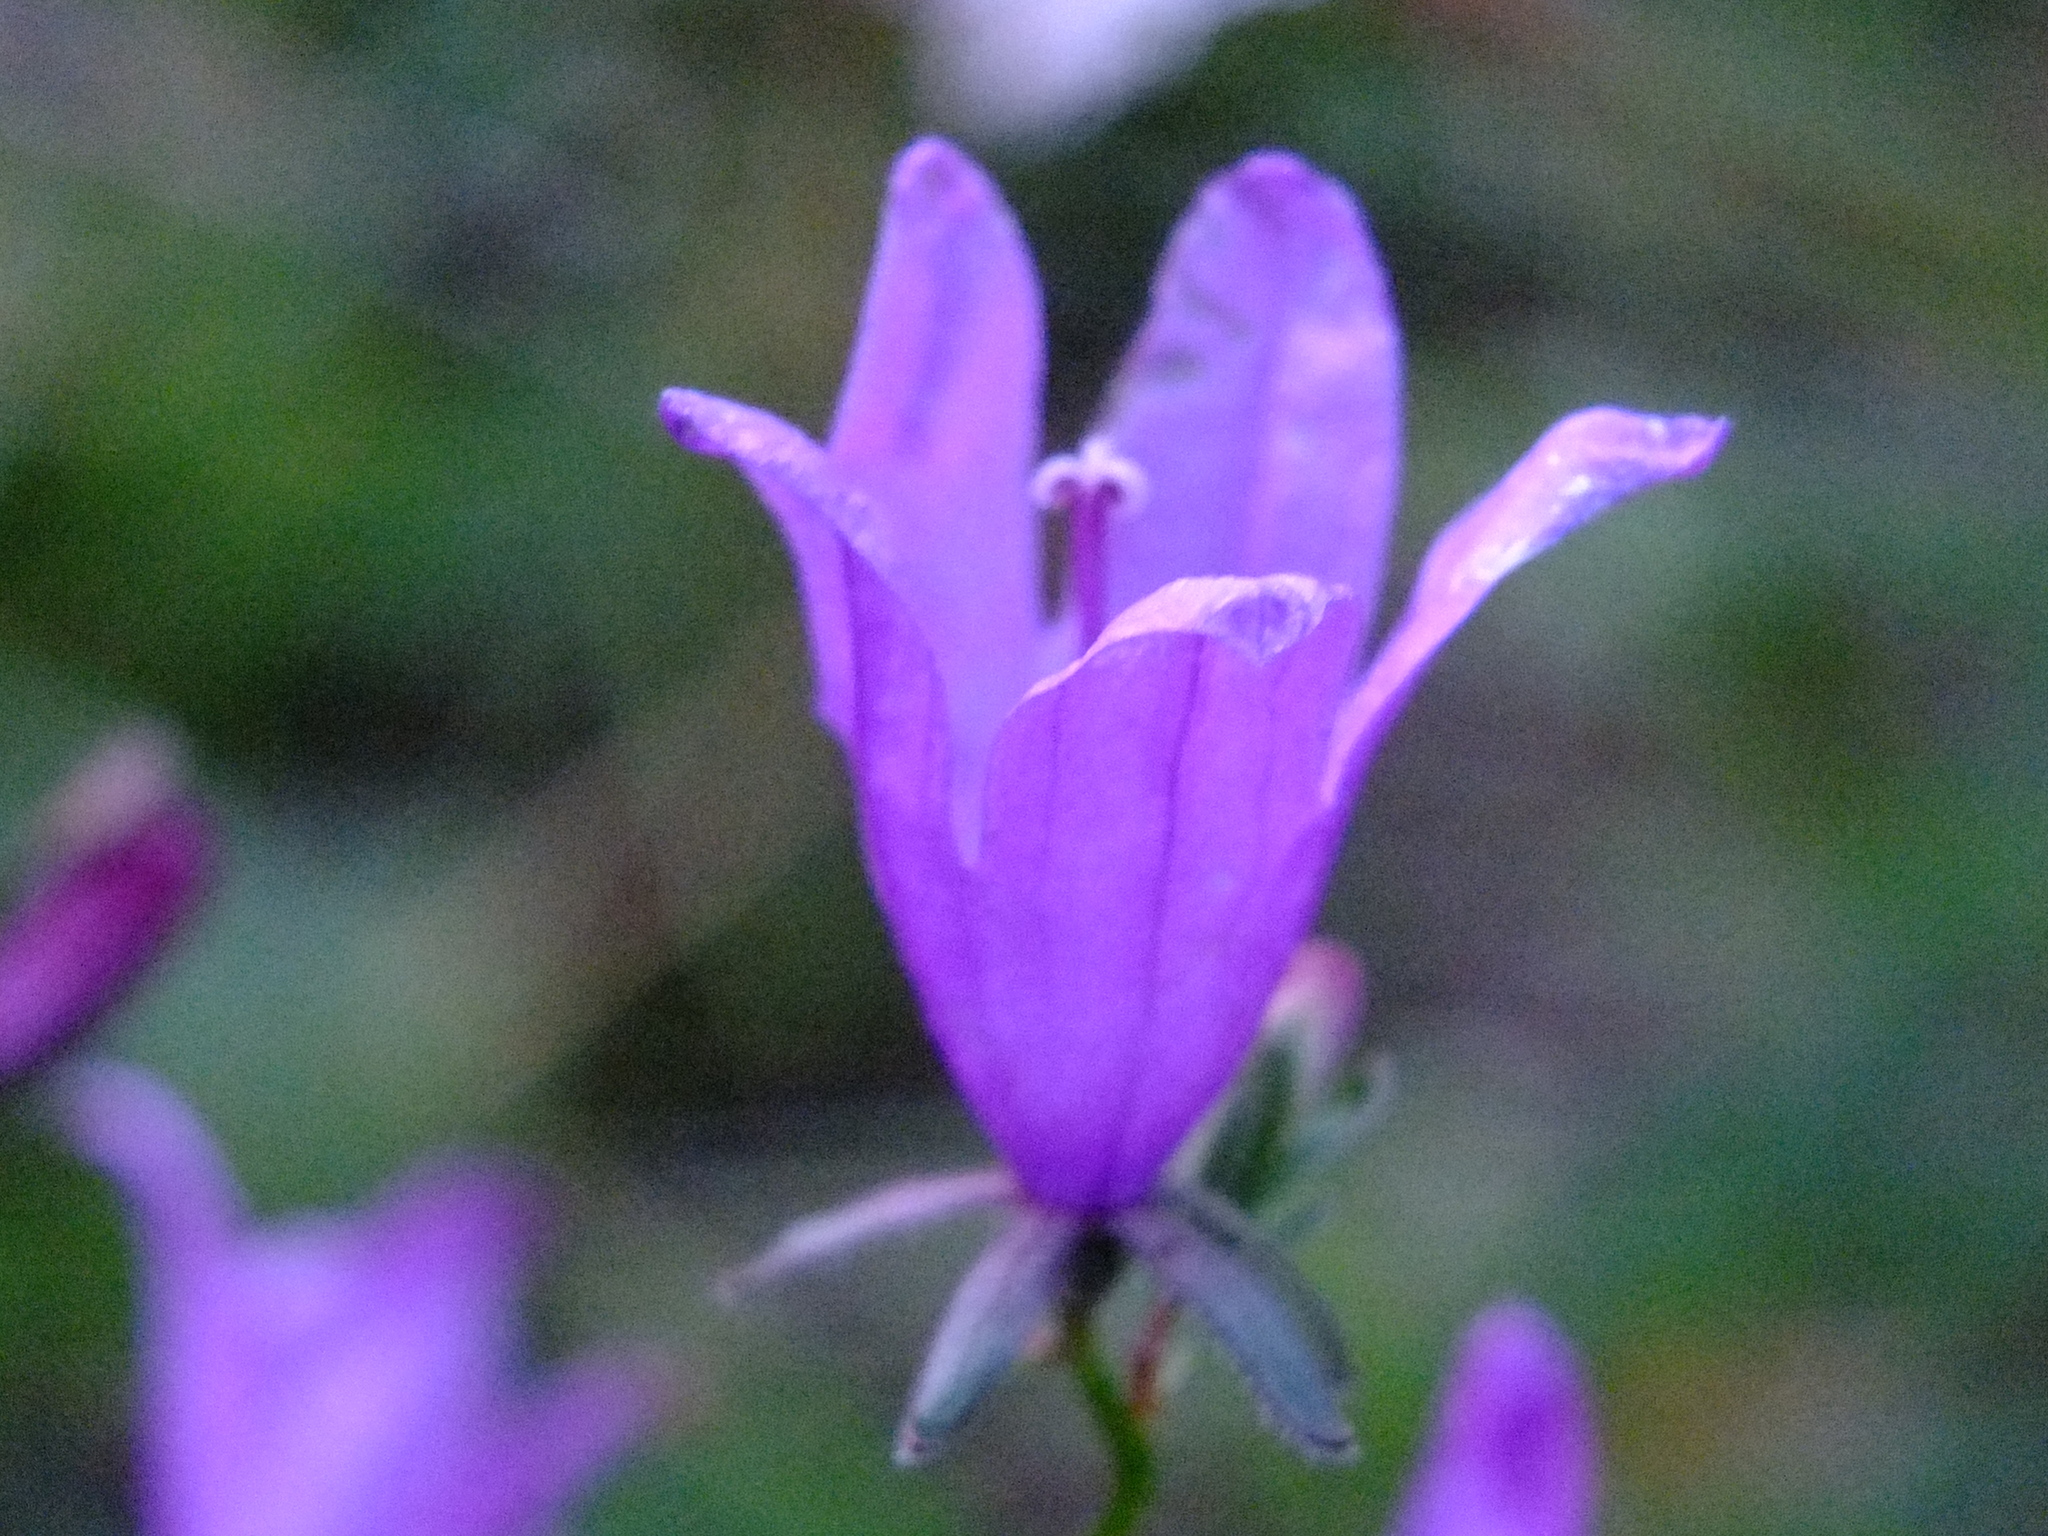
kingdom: Plantae
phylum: Tracheophyta
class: Magnoliopsida
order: Asterales
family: Campanulaceae
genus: Campanula
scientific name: Campanula rapunculoides
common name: Creeping bellflower
